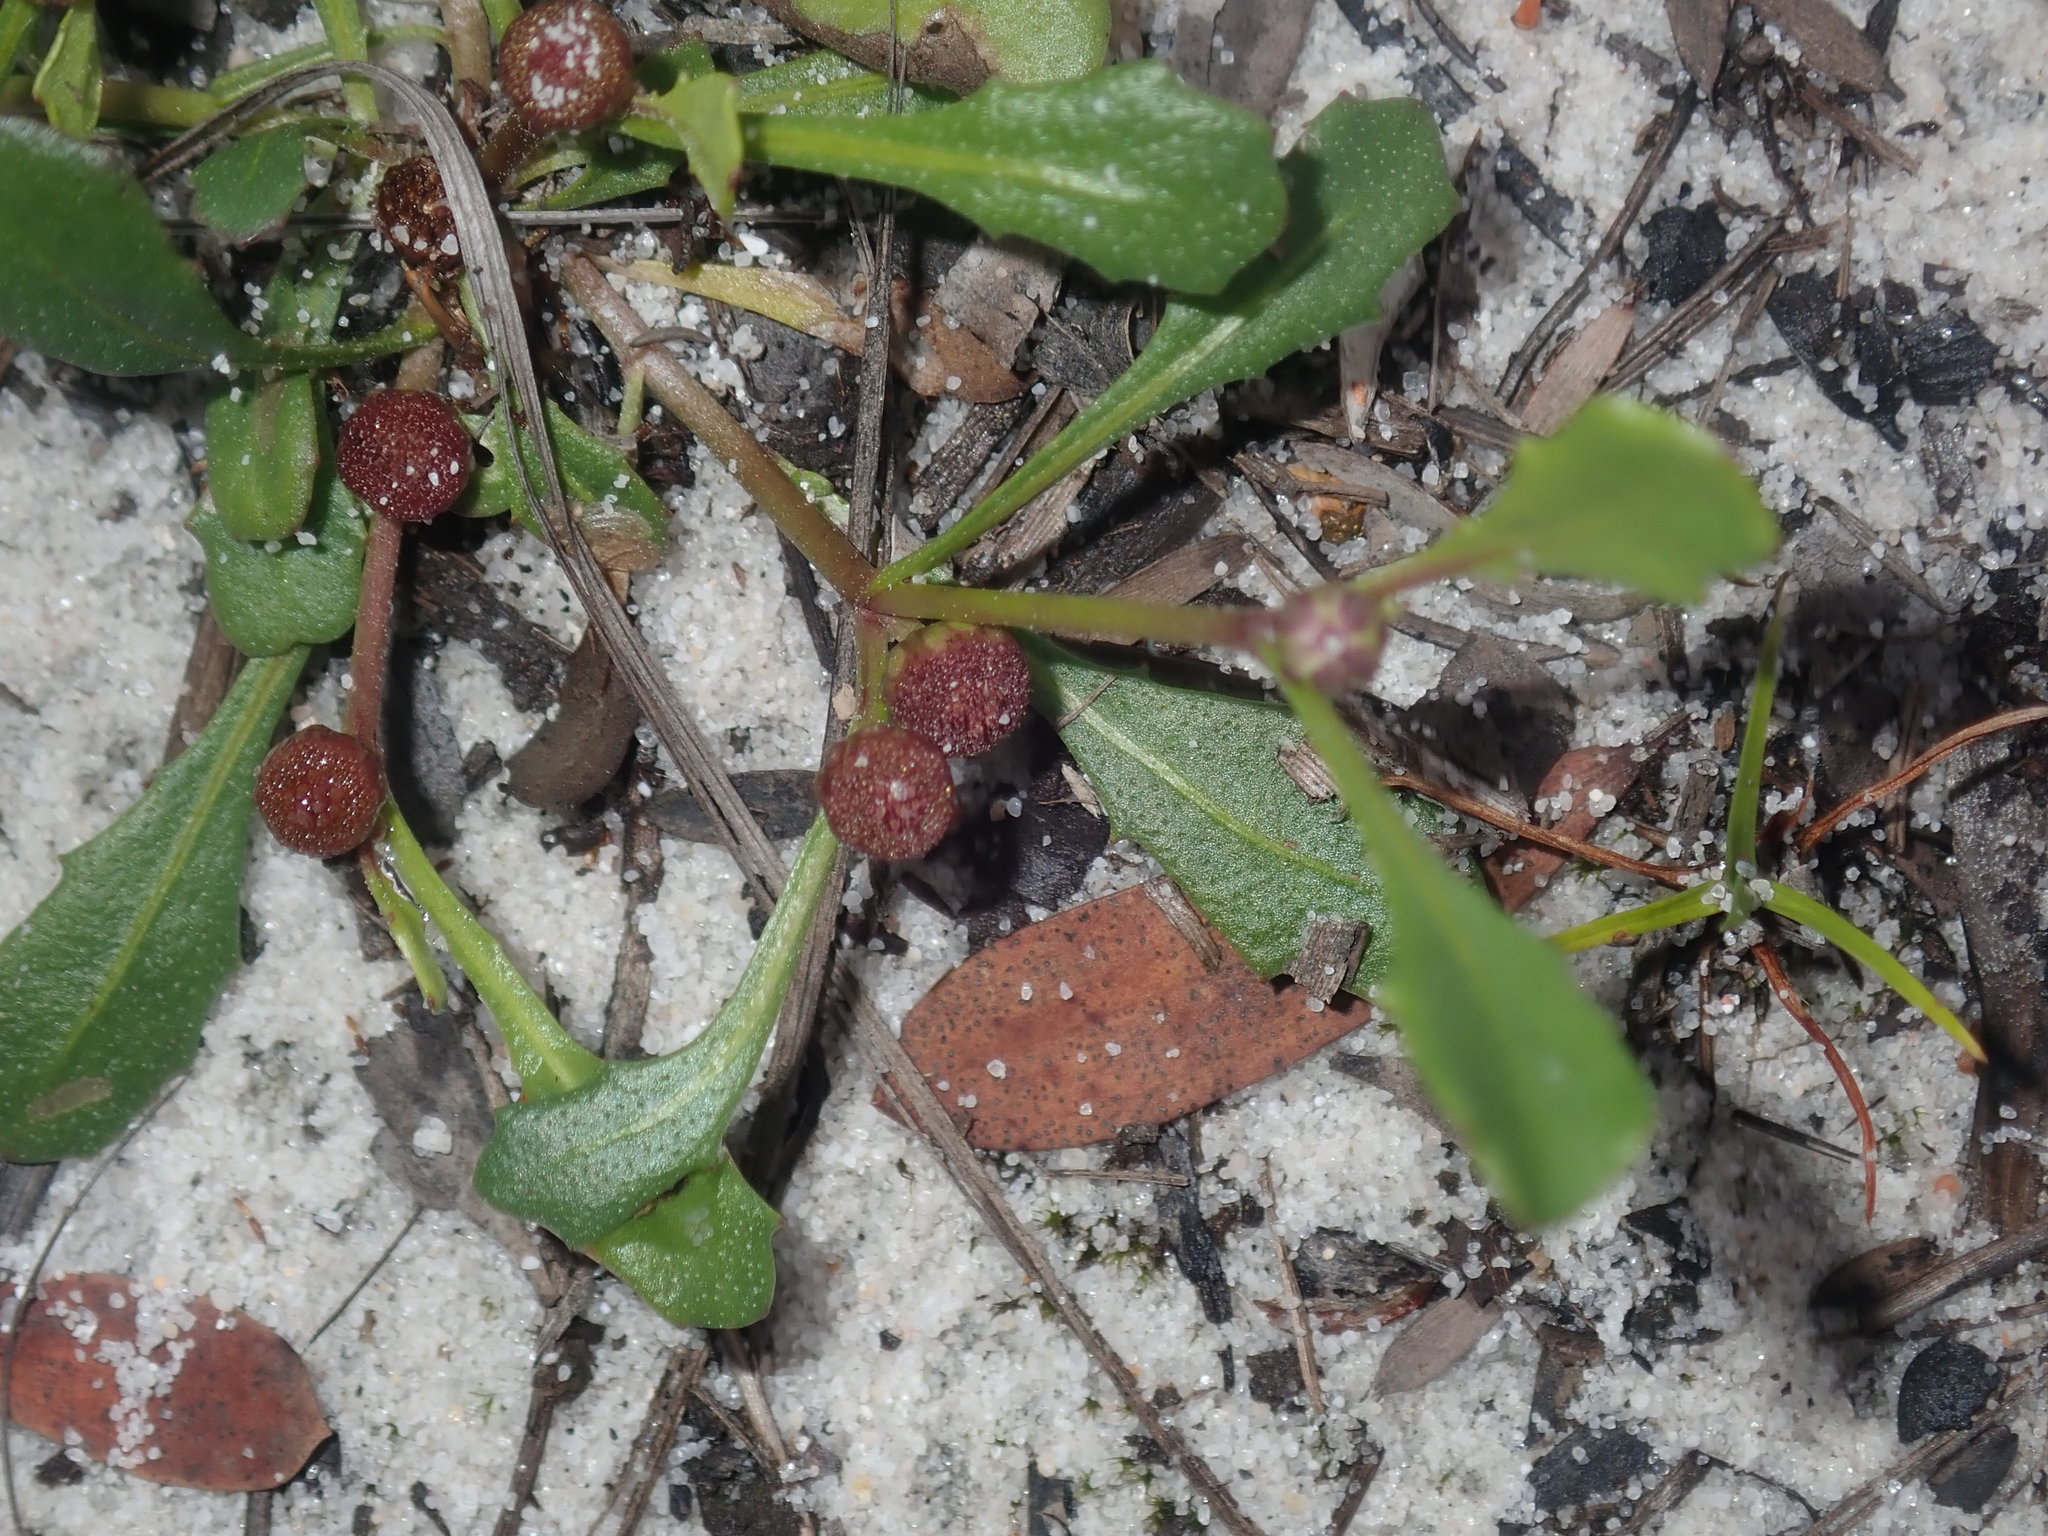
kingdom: Plantae
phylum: Tracheophyta
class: Magnoliopsida
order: Asterales
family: Asteraceae
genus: Sphaeromorphaea
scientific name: Sphaeromorphaea australis
